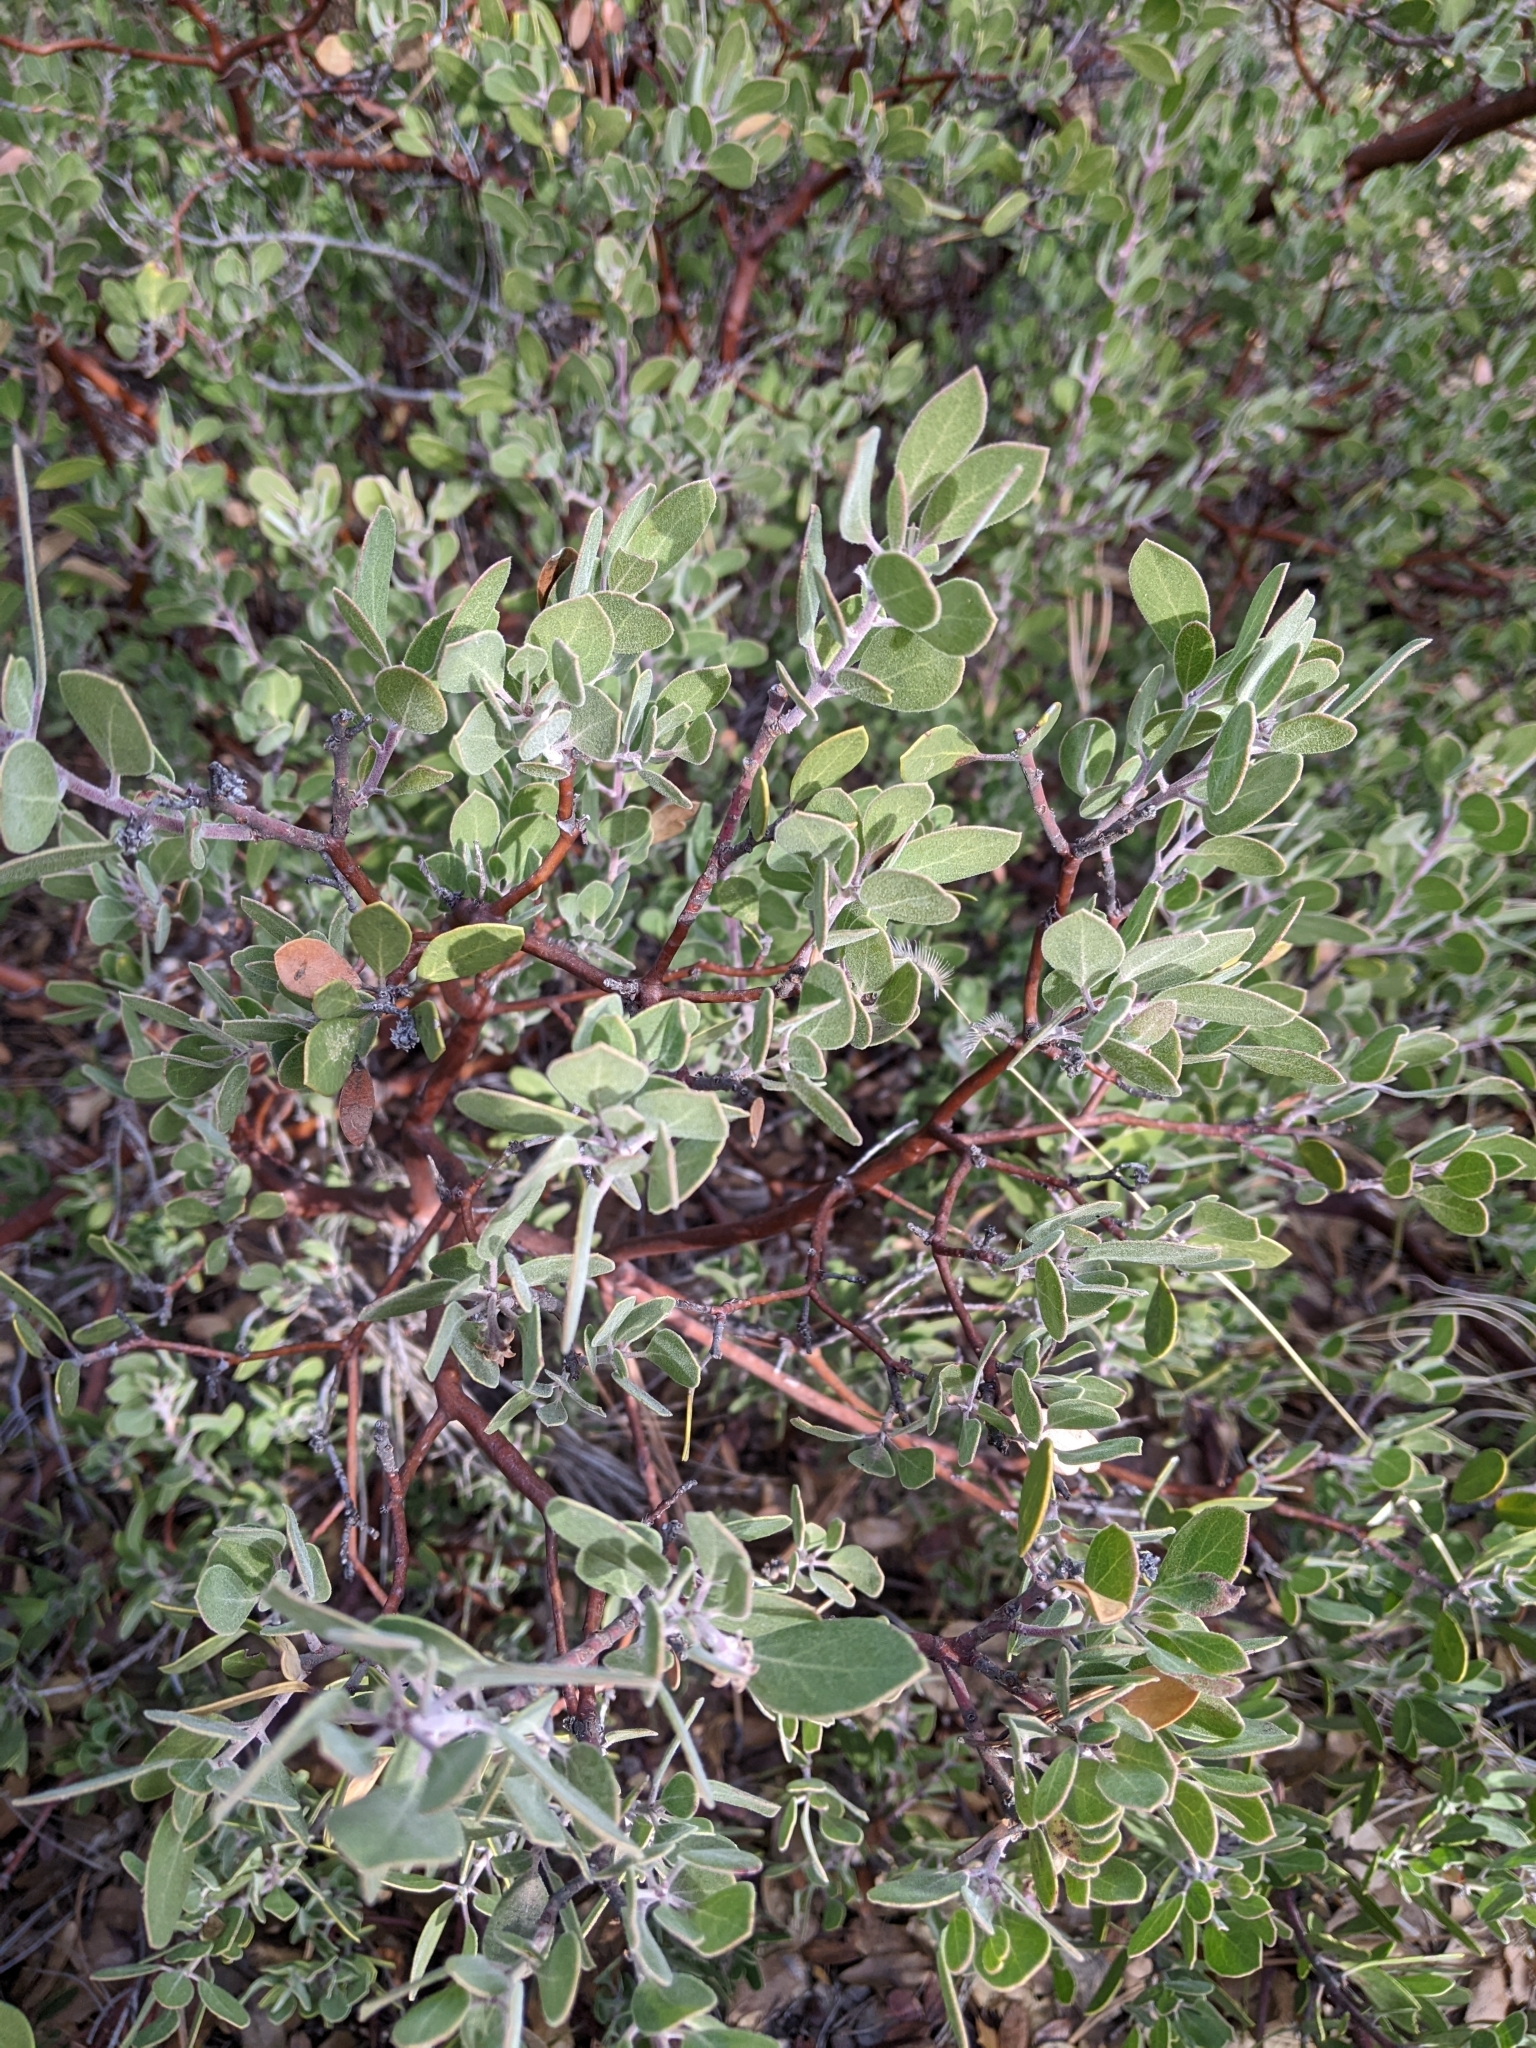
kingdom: Plantae
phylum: Tracheophyta
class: Magnoliopsida
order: Ericales
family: Ericaceae
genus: Arctostaphylos
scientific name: Arctostaphylos pungens
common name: Mexican manzanita
